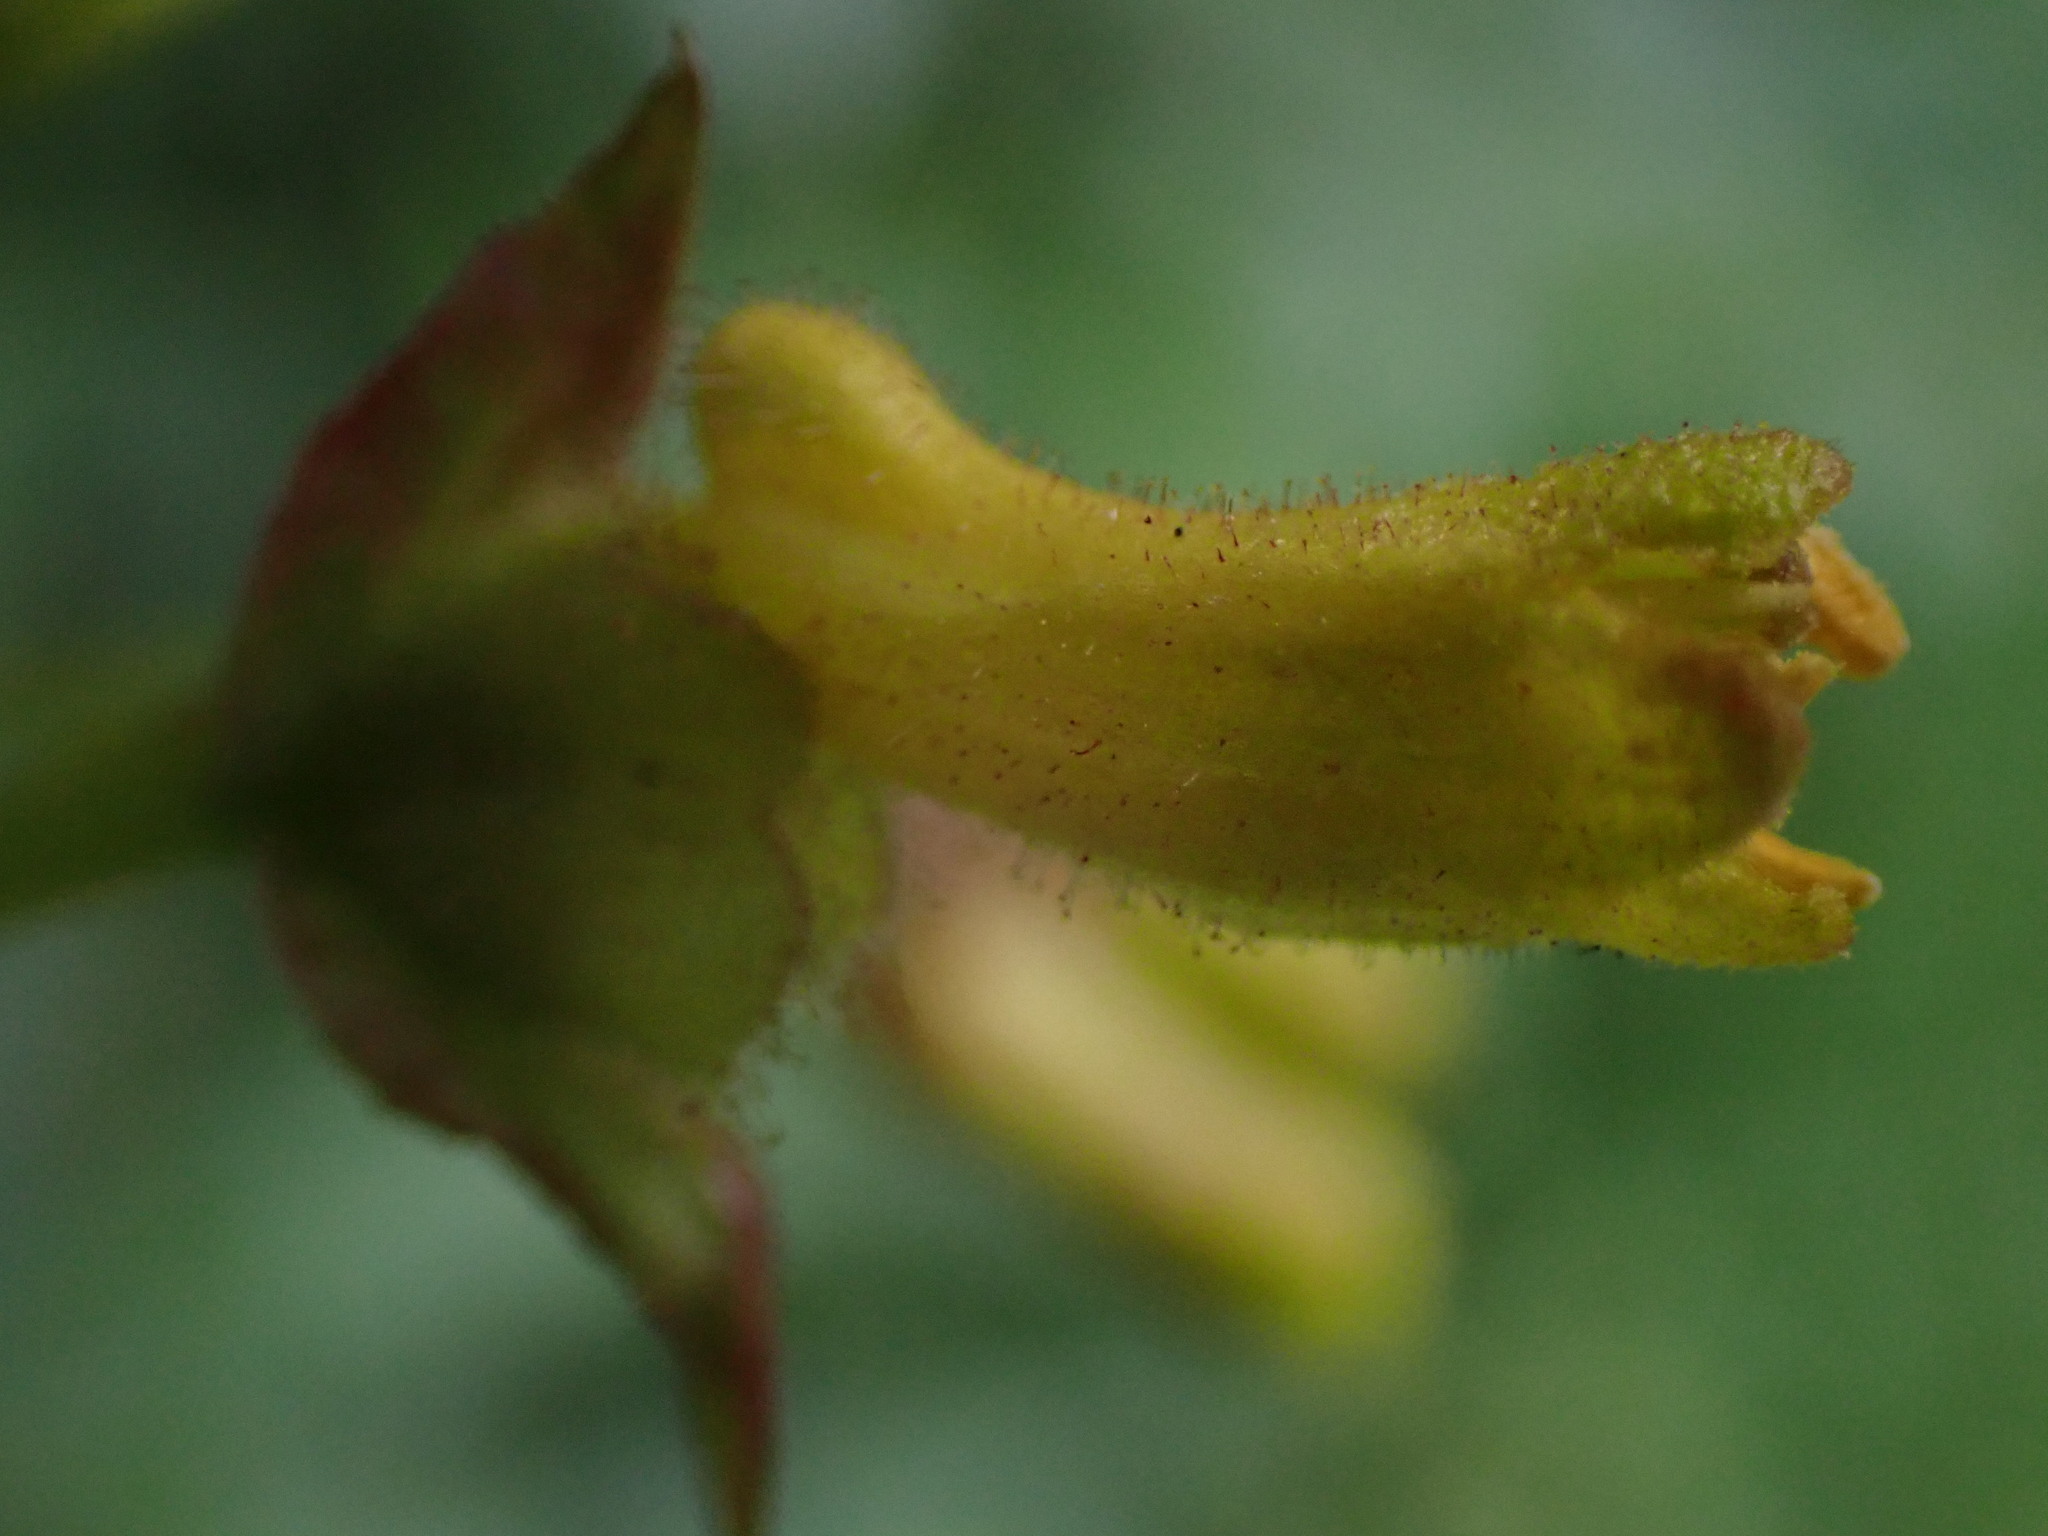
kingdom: Plantae
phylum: Tracheophyta
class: Magnoliopsida
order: Dipsacales
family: Caprifoliaceae
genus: Lonicera
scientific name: Lonicera involucrata
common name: Californian honeysuckle
